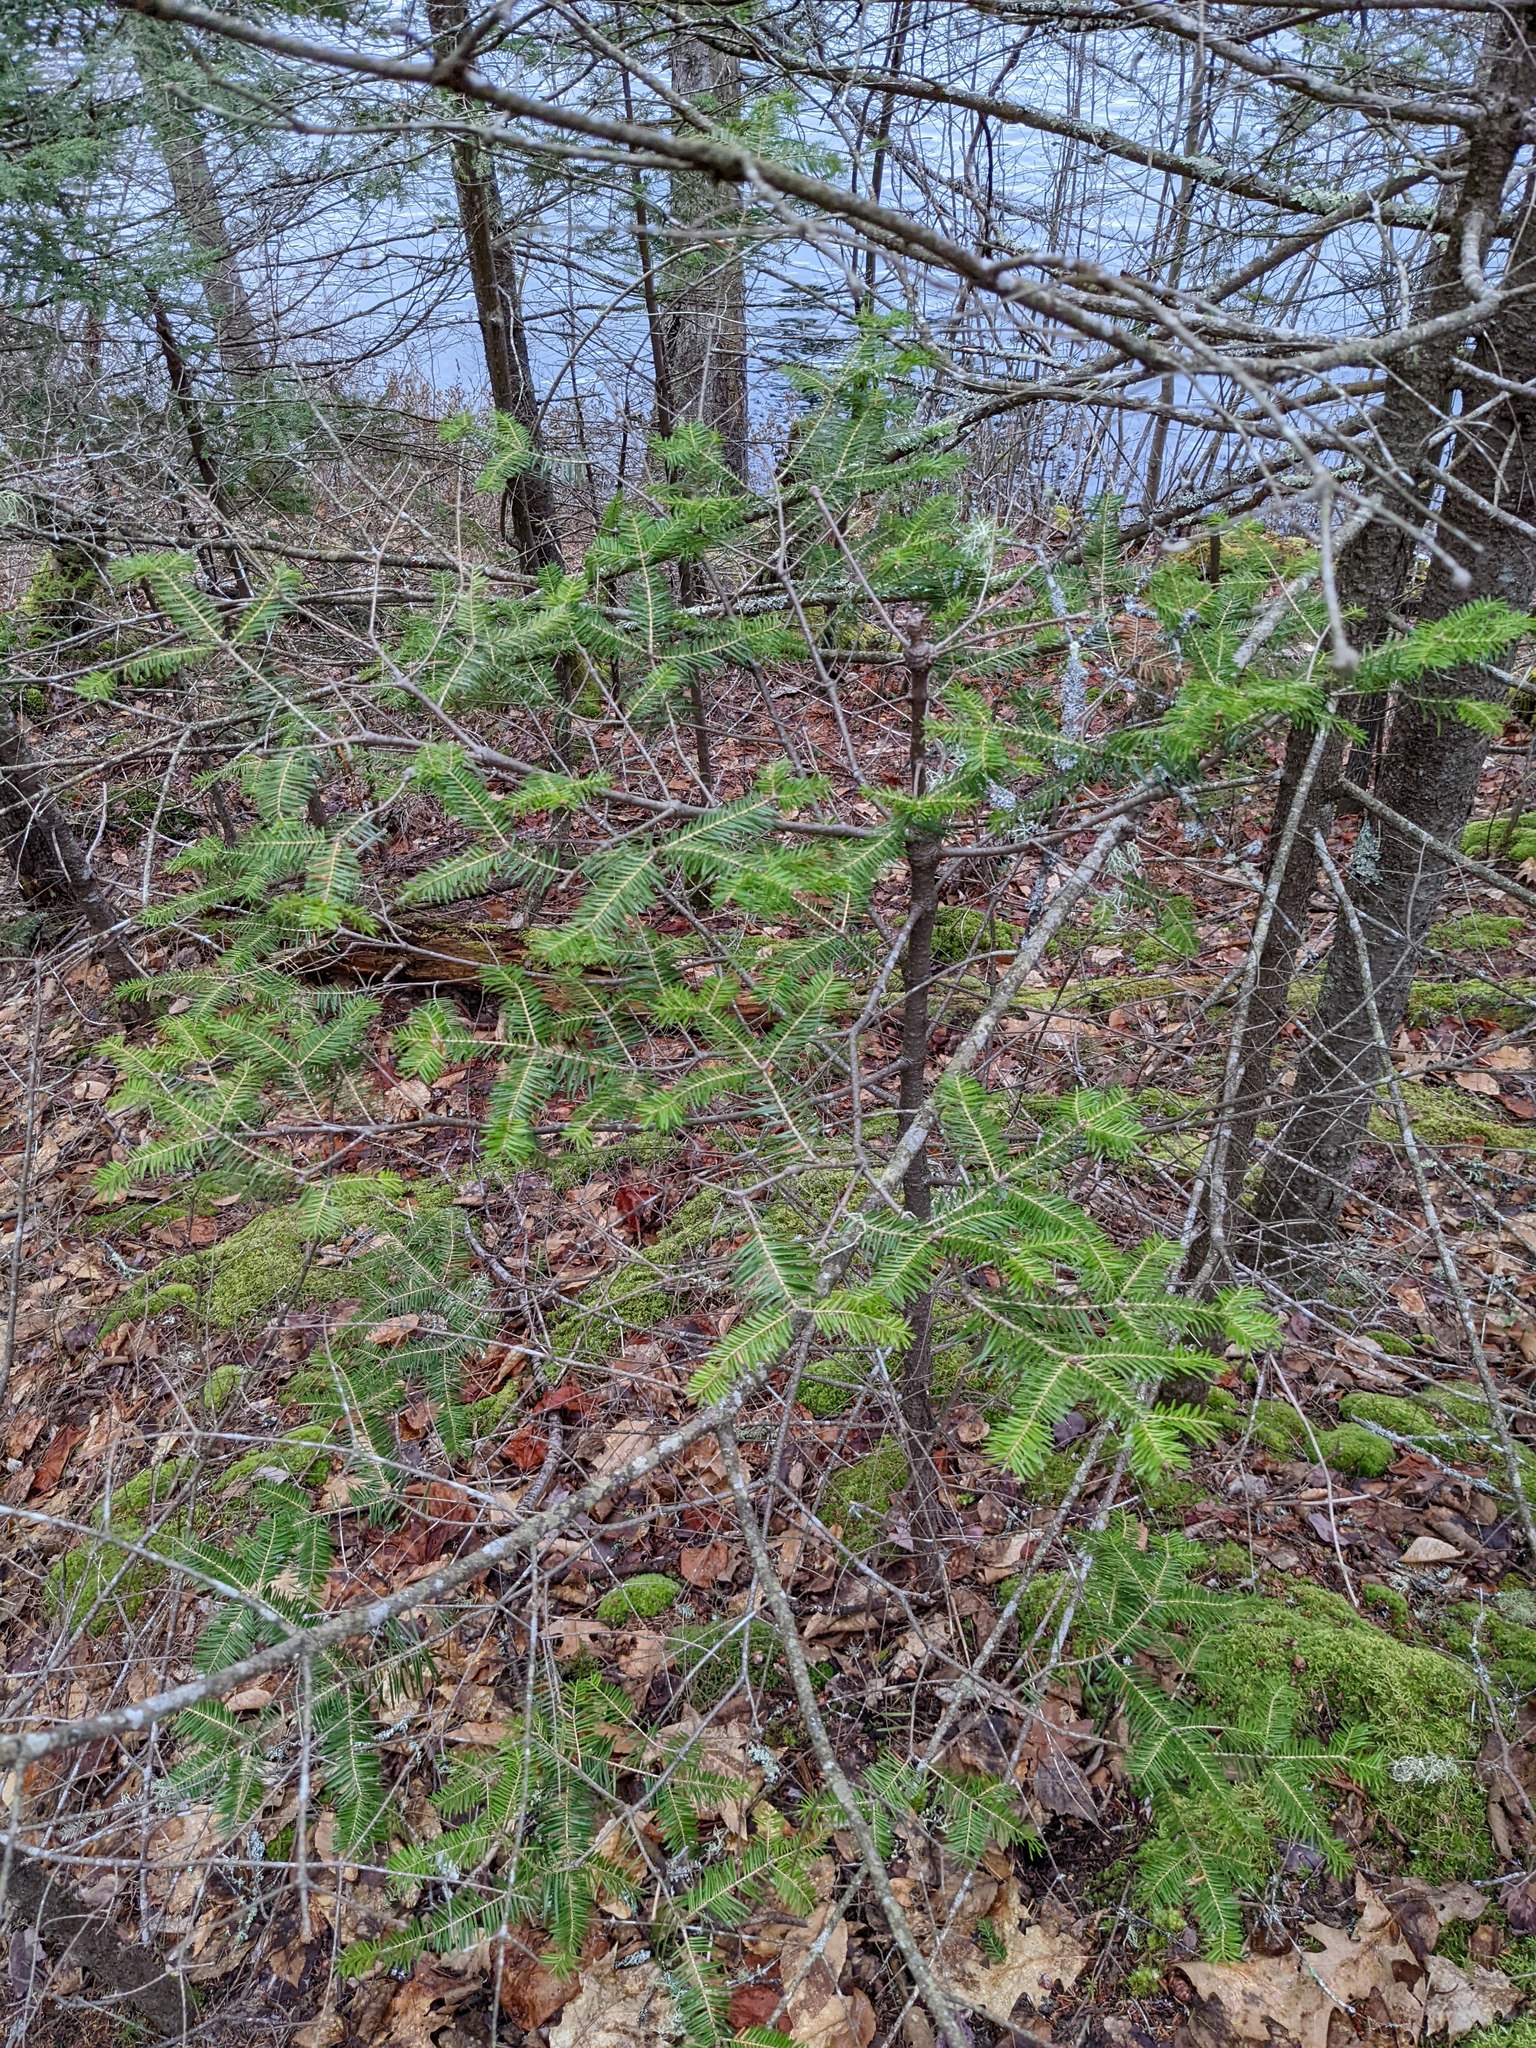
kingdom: Plantae
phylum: Tracheophyta
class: Pinopsida
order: Pinales
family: Pinaceae
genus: Abies
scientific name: Abies balsamea
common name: Balsam fir
